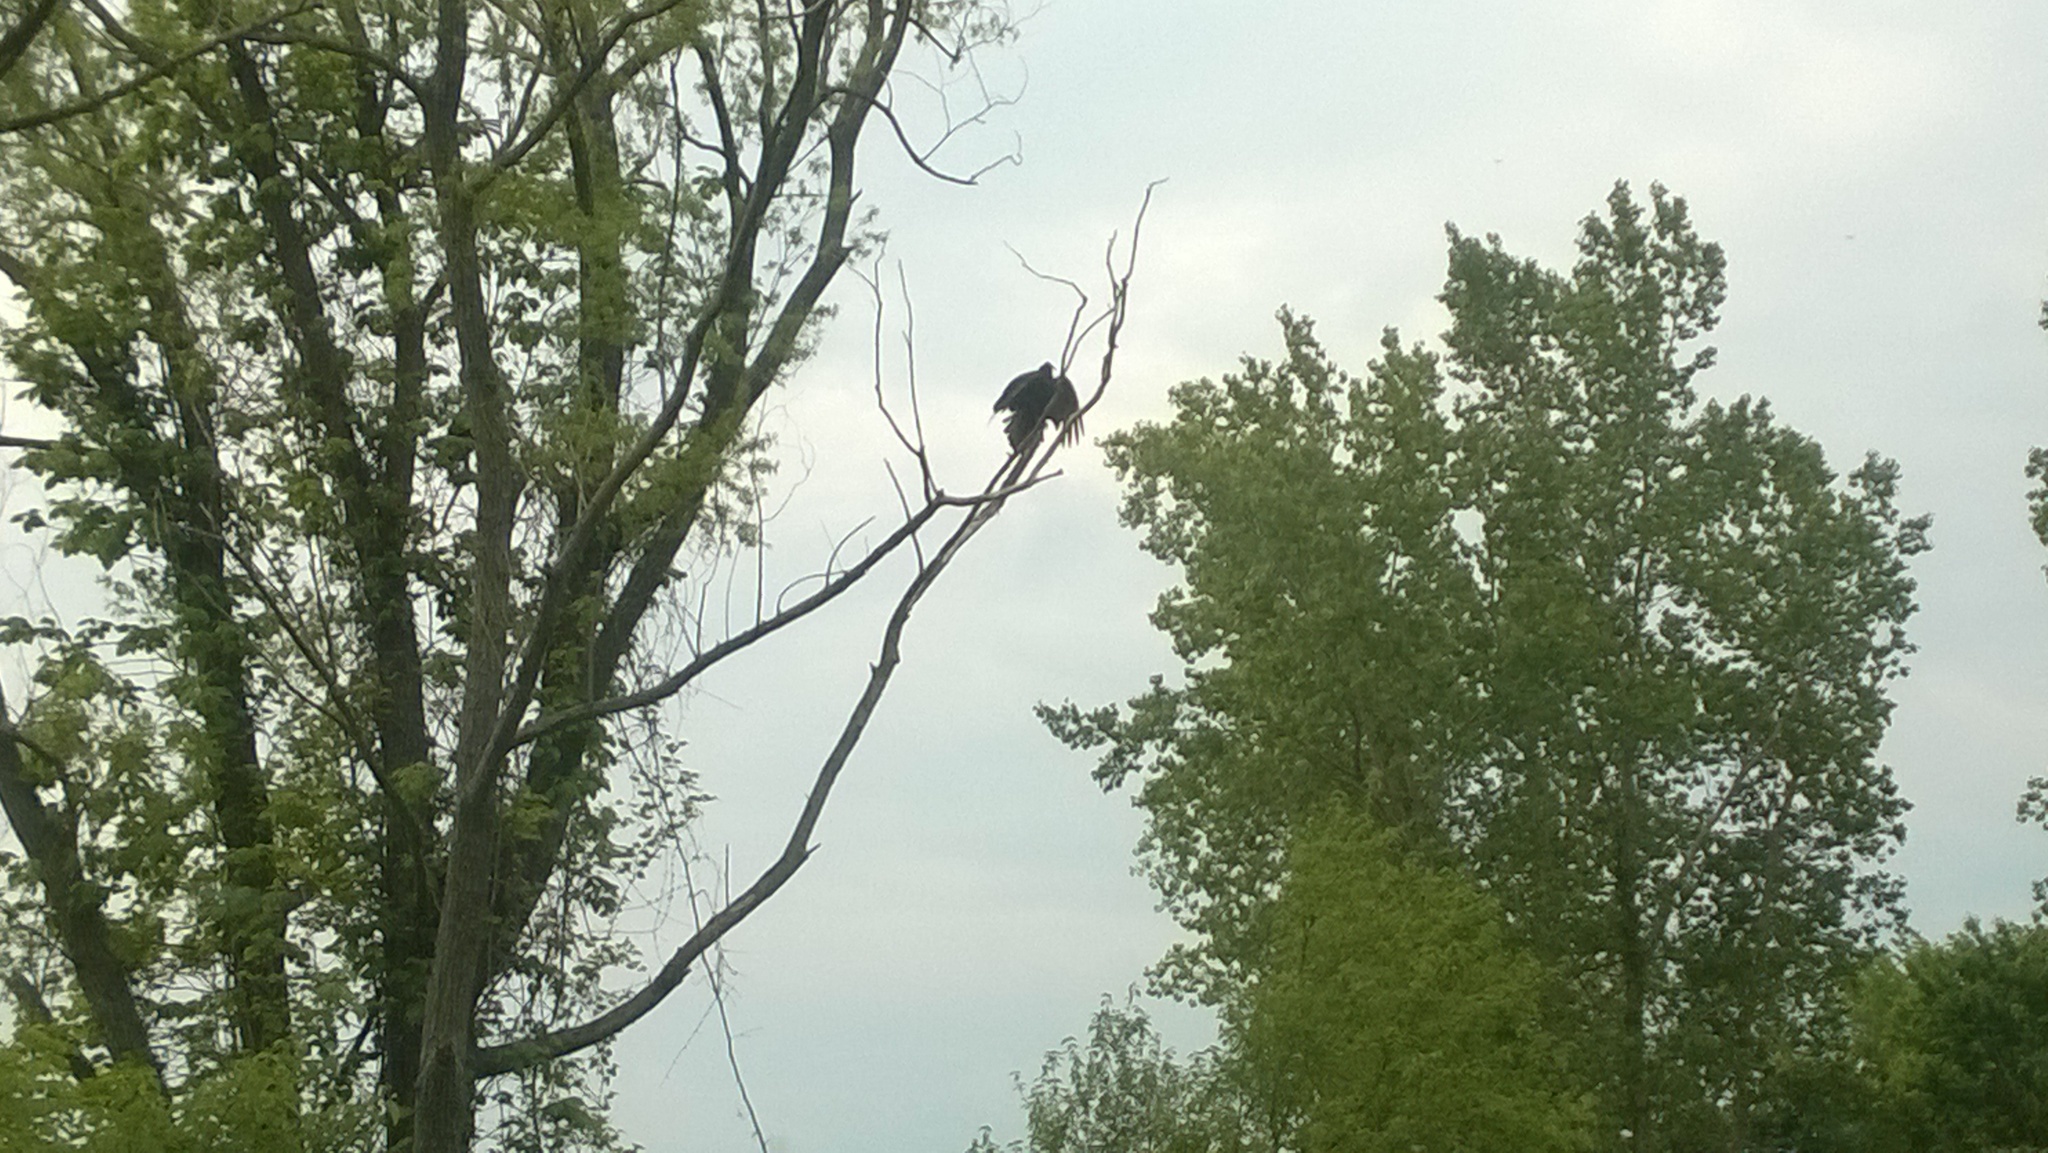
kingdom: Animalia
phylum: Chordata
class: Aves
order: Accipitriformes
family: Cathartidae
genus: Cathartes
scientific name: Cathartes aura
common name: Turkey vulture
